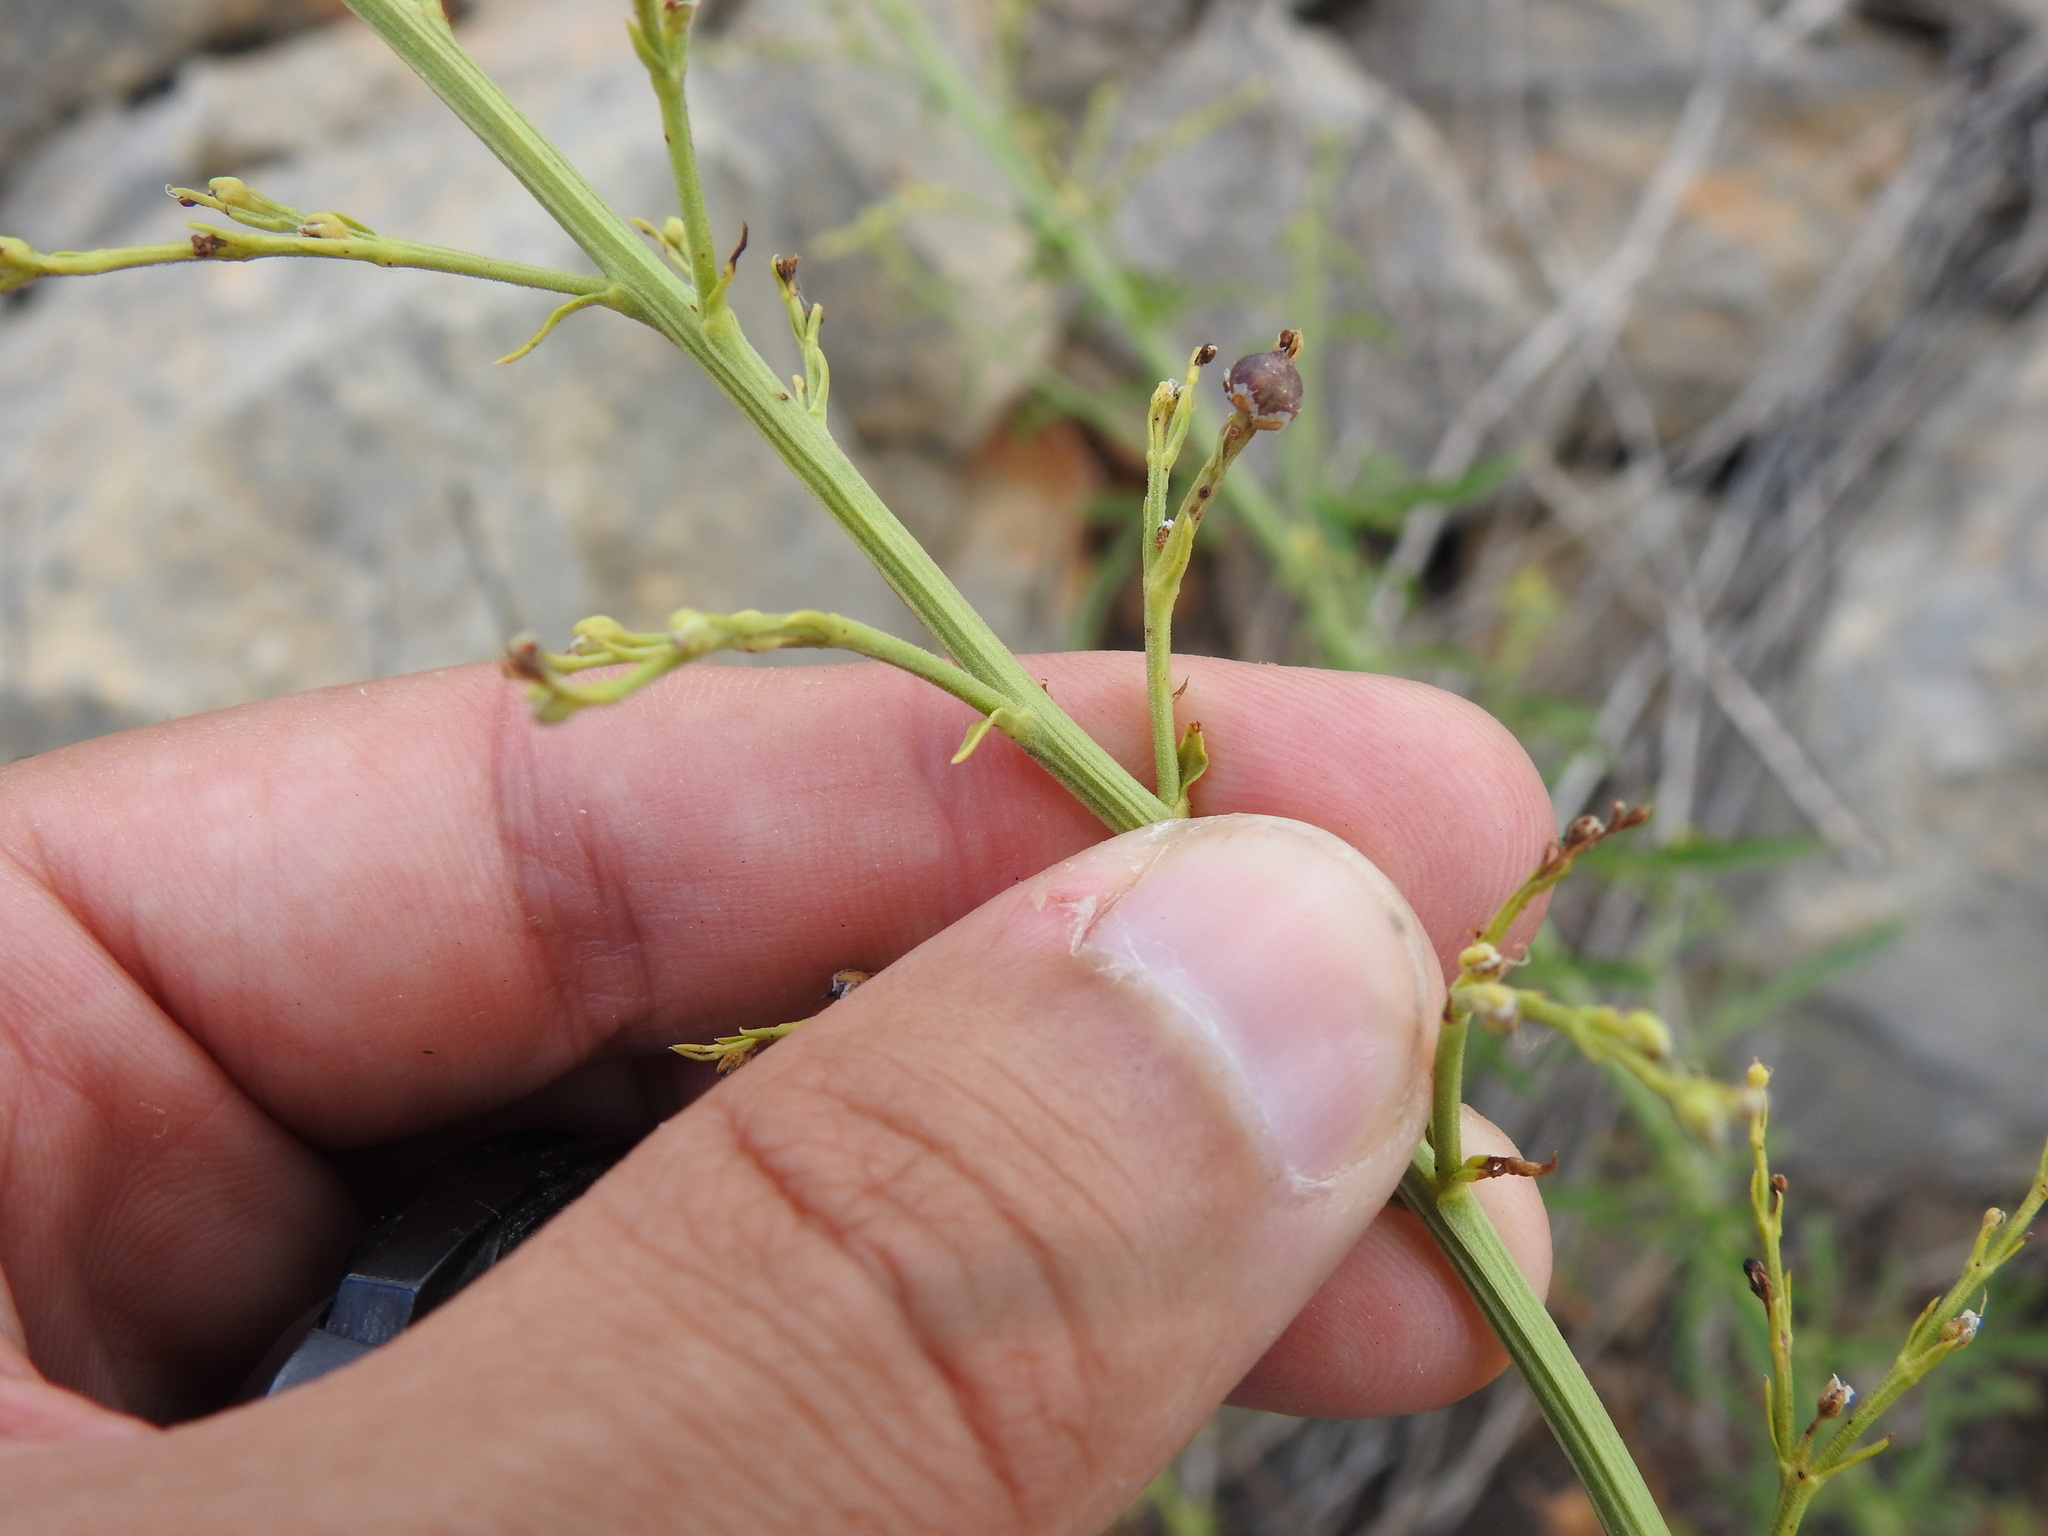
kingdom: Plantae
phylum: Tracheophyta
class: Magnoliopsida
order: Lamiales
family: Scrophulariaceae
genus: Scrophularia
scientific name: Scrophularia canina
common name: French figwort
